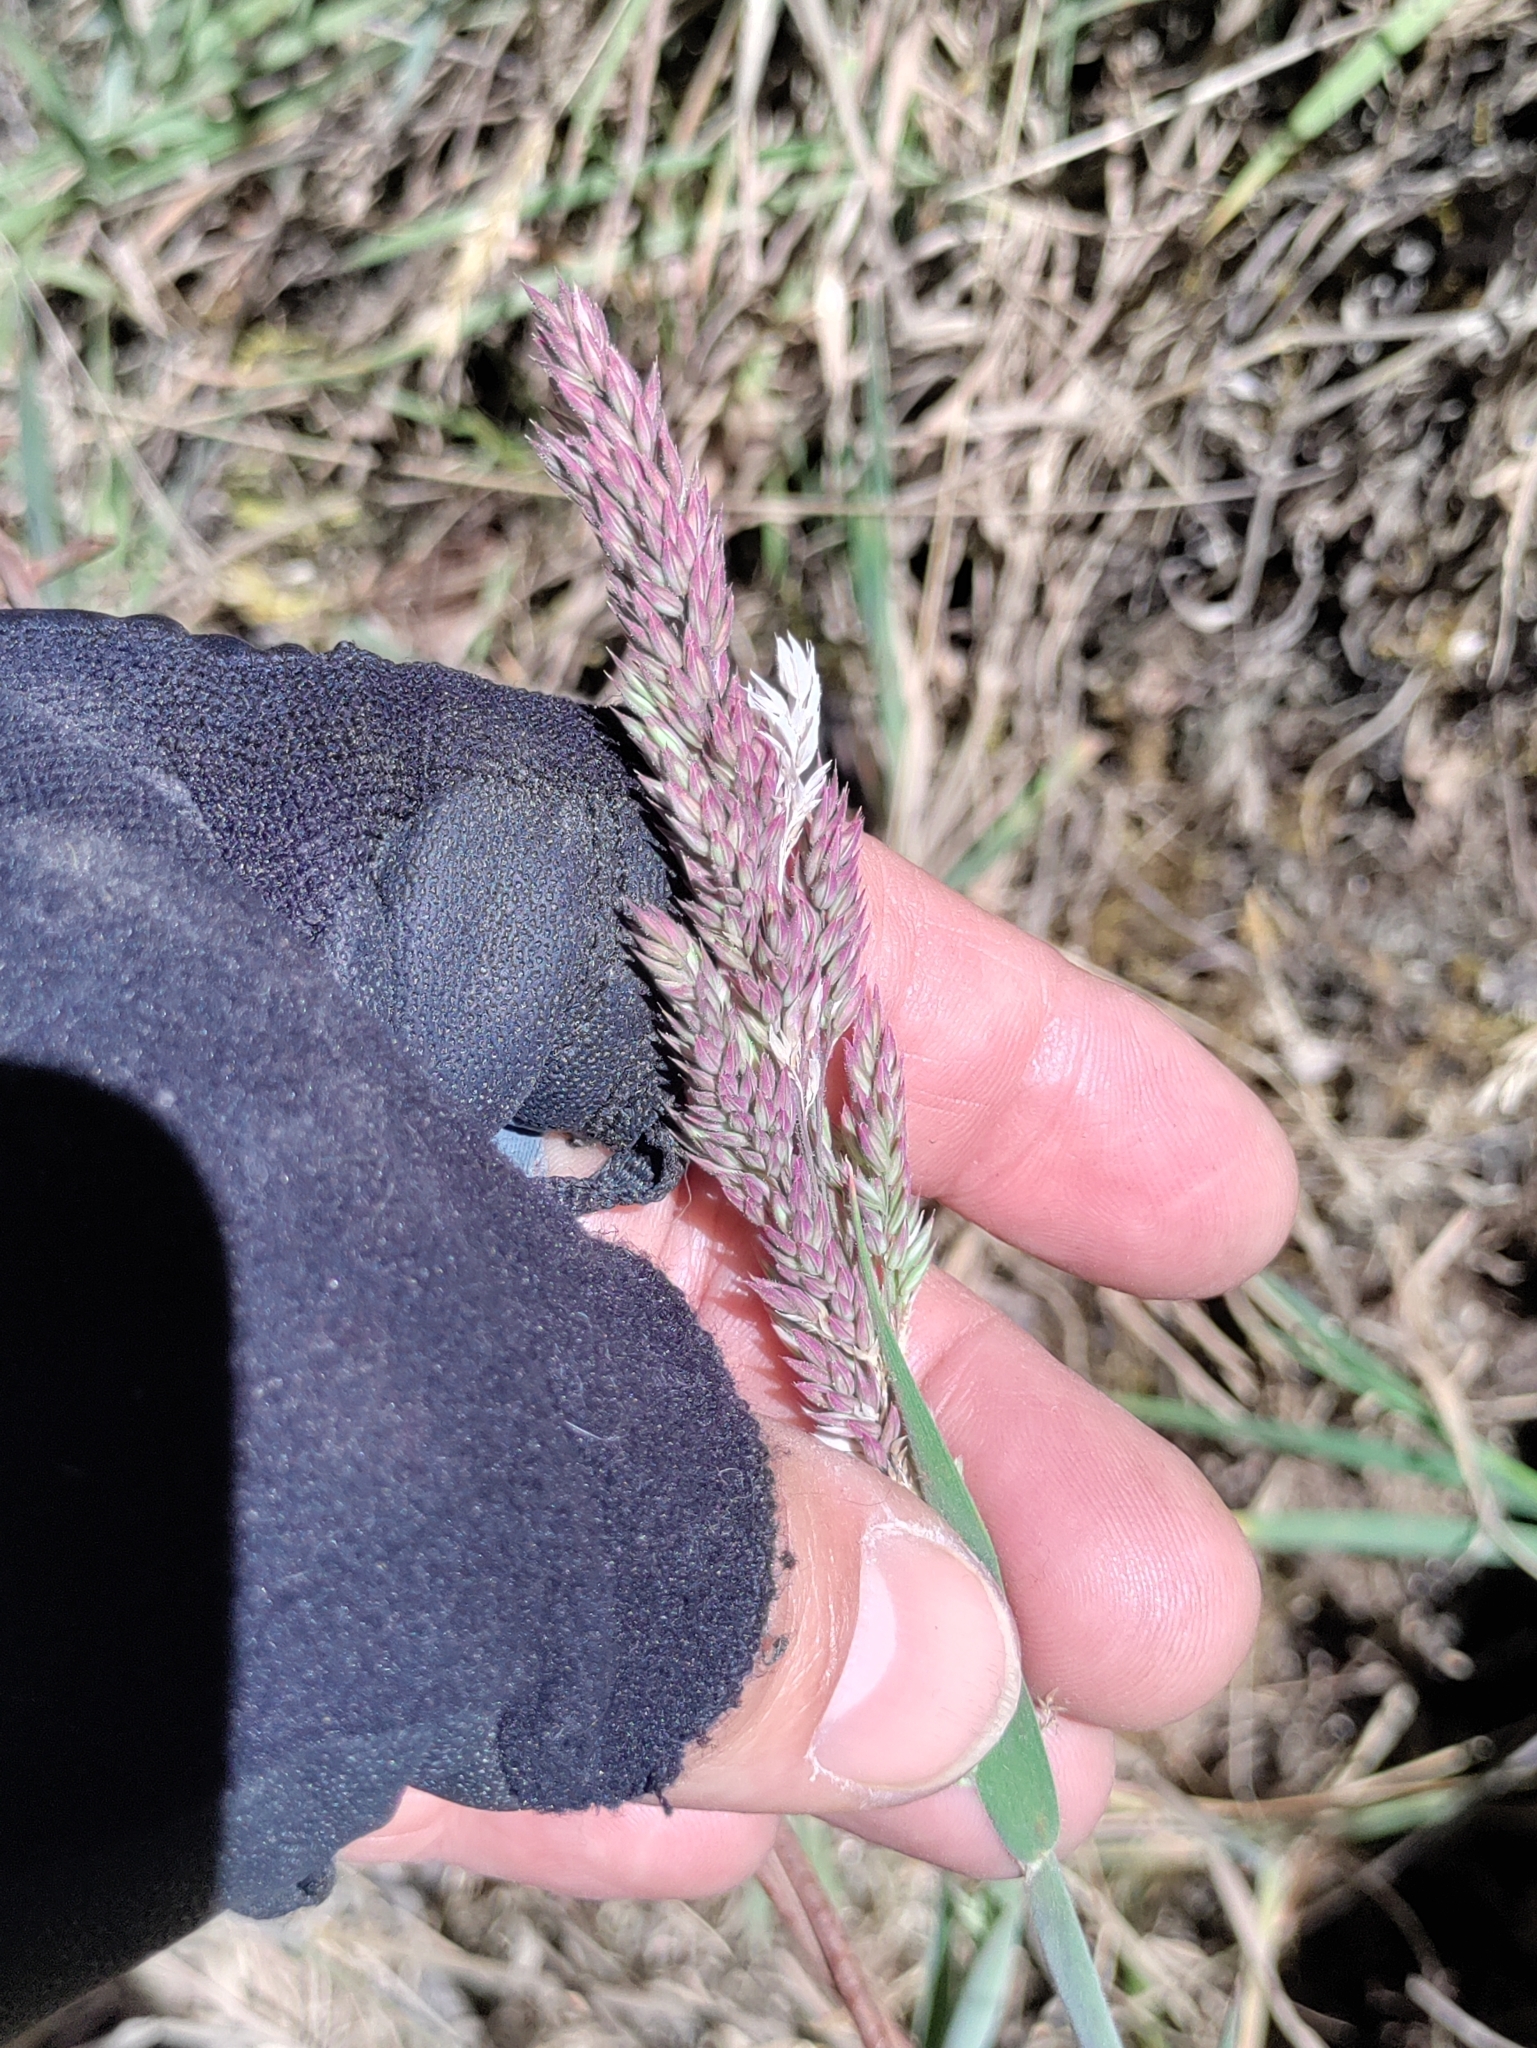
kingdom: Plantae
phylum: Tracheophyta
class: Liliopsida
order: Poales
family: Poaceae
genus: Holcus
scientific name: Holcus lanatus
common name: Yorkshire-fog
